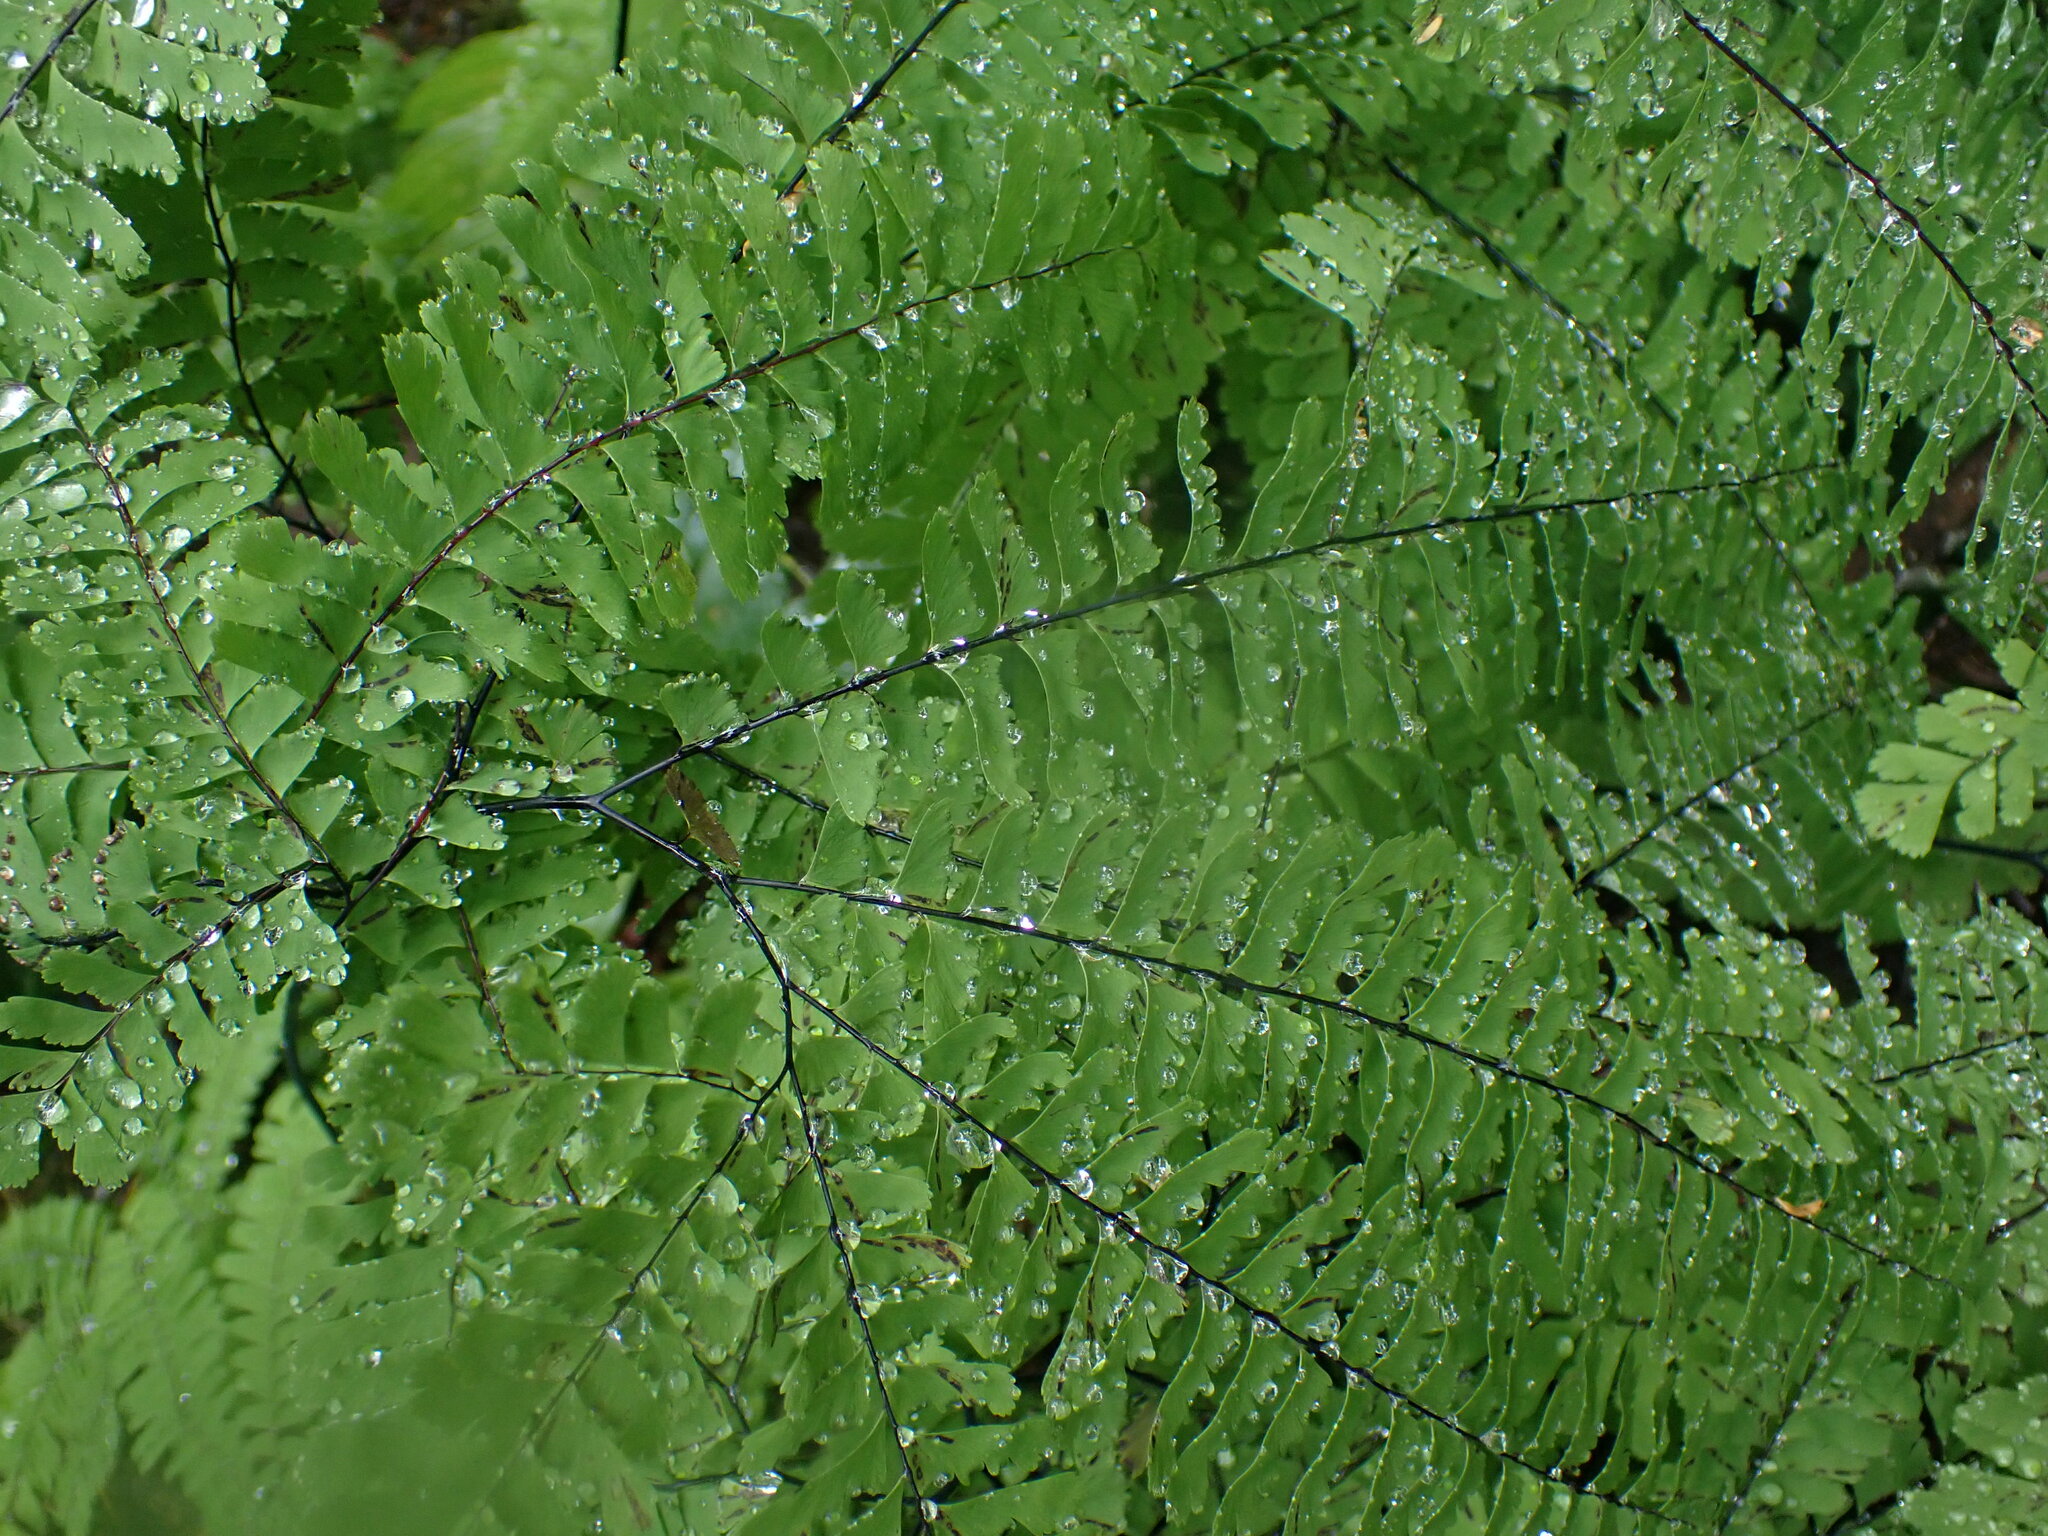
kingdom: Plantae
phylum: Tracheophyta
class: Polypodiopsida
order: Polypodiales
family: Pteridaceae
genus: Adiantum
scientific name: Adiantum aleuticum
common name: Aleutian maidenhair fern
